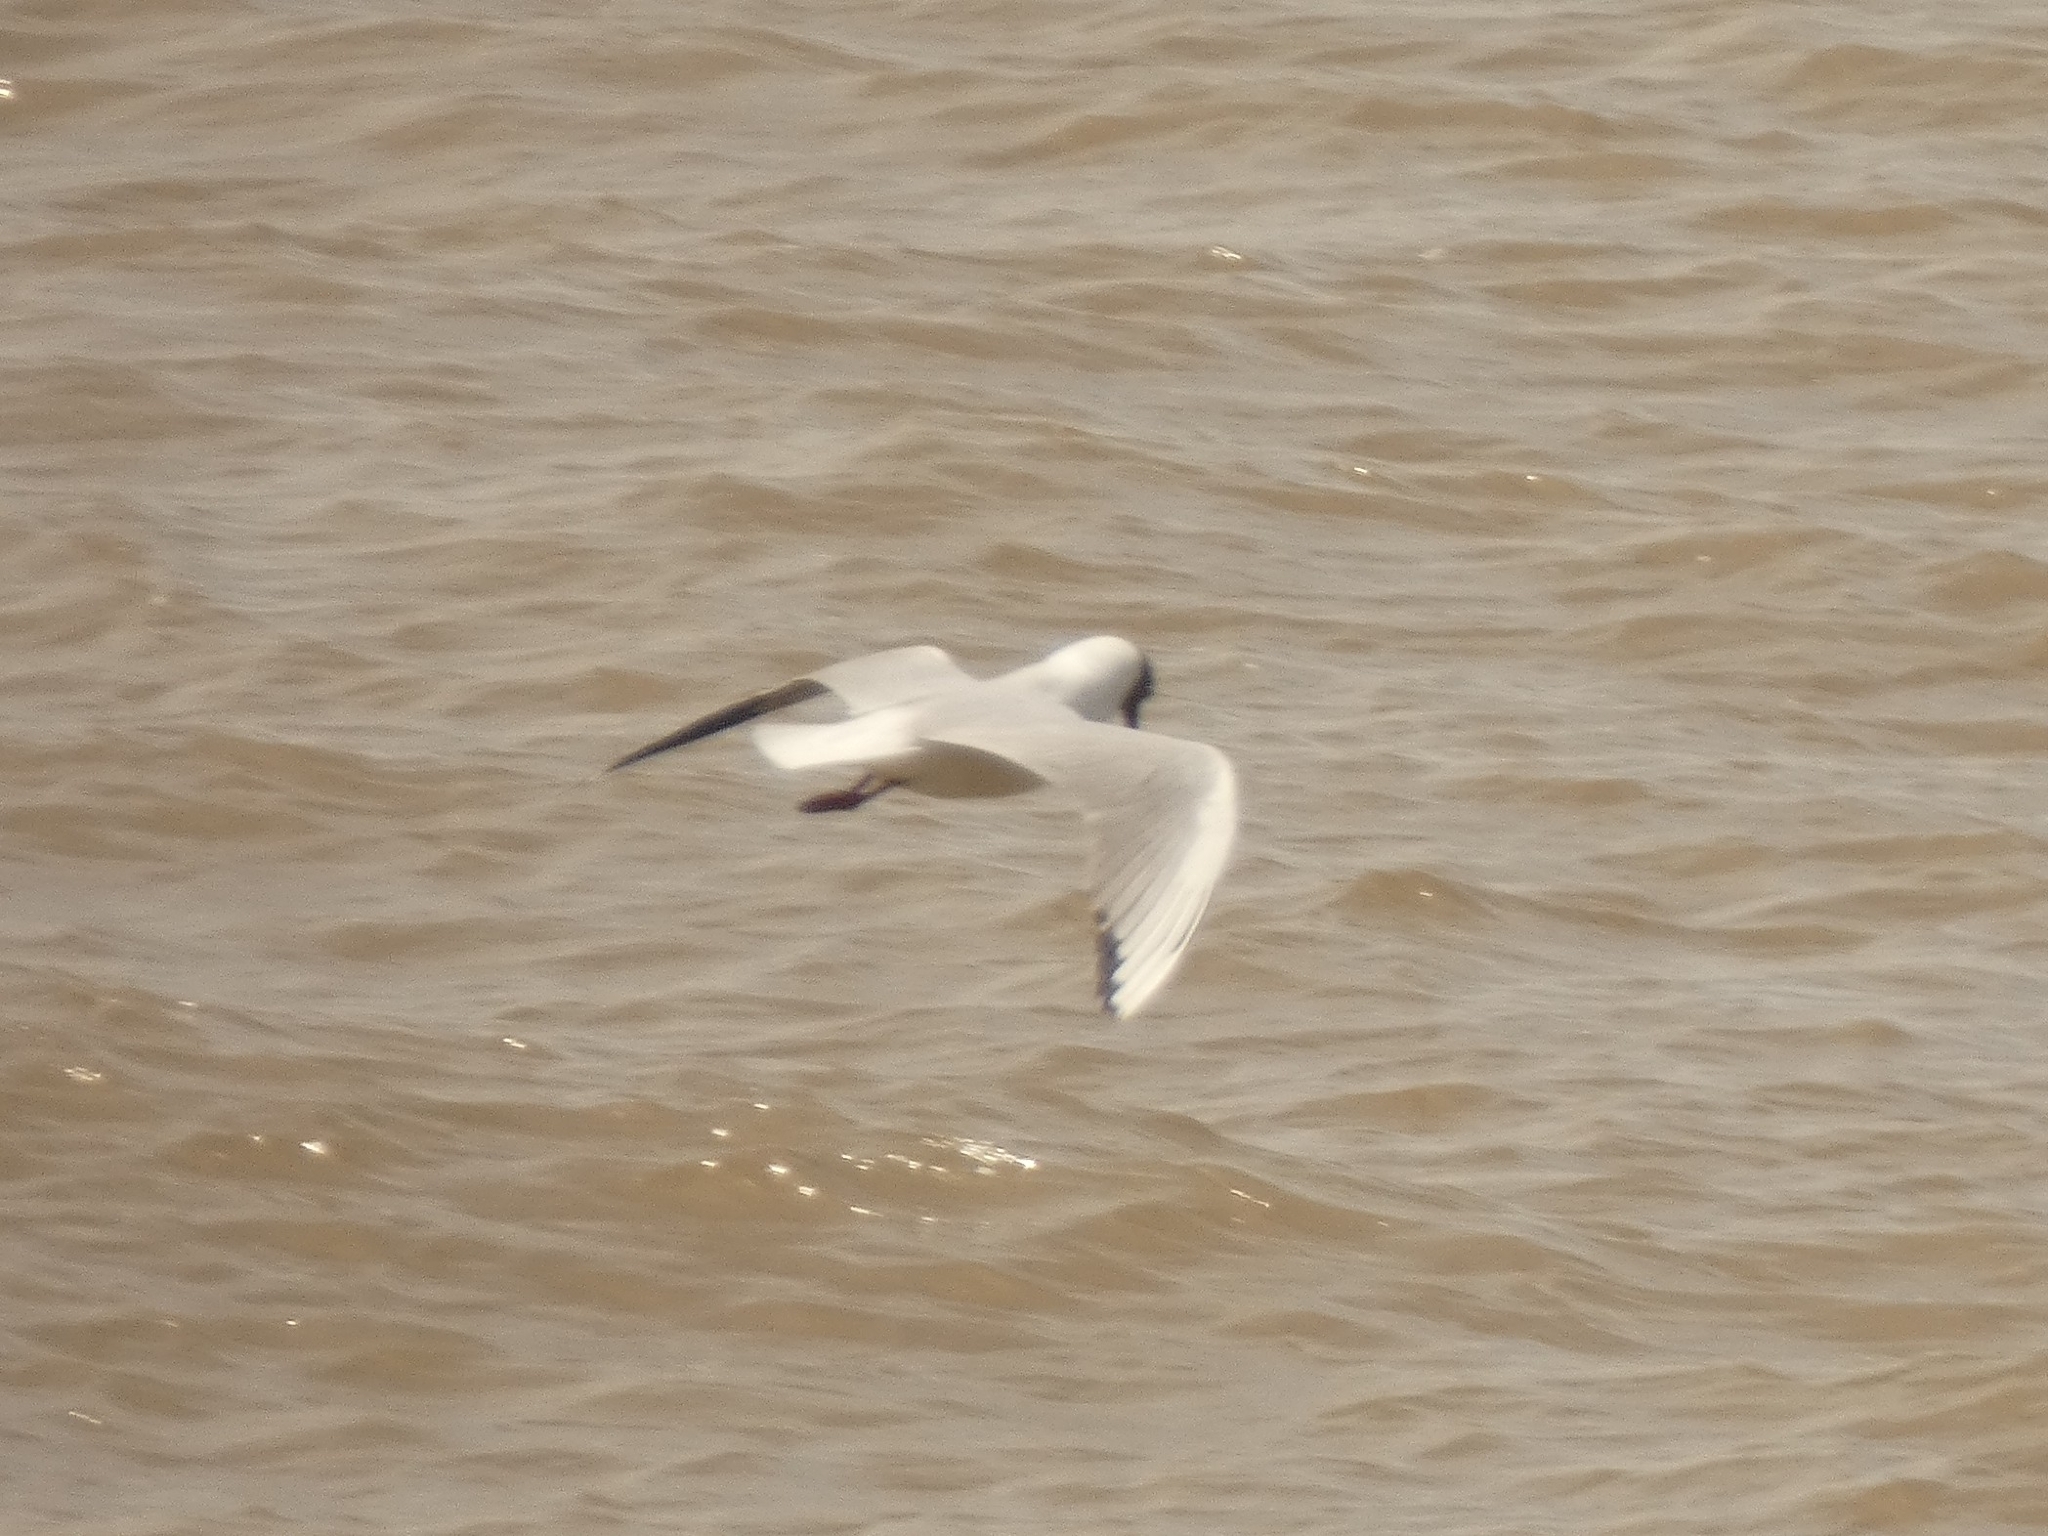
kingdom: Animalia
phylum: Chordata
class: Aves
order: Charadriiformes
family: Laridae
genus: Chroicocephalus
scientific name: Chroicocephalus maculipennis
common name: Brown-hooded gull
